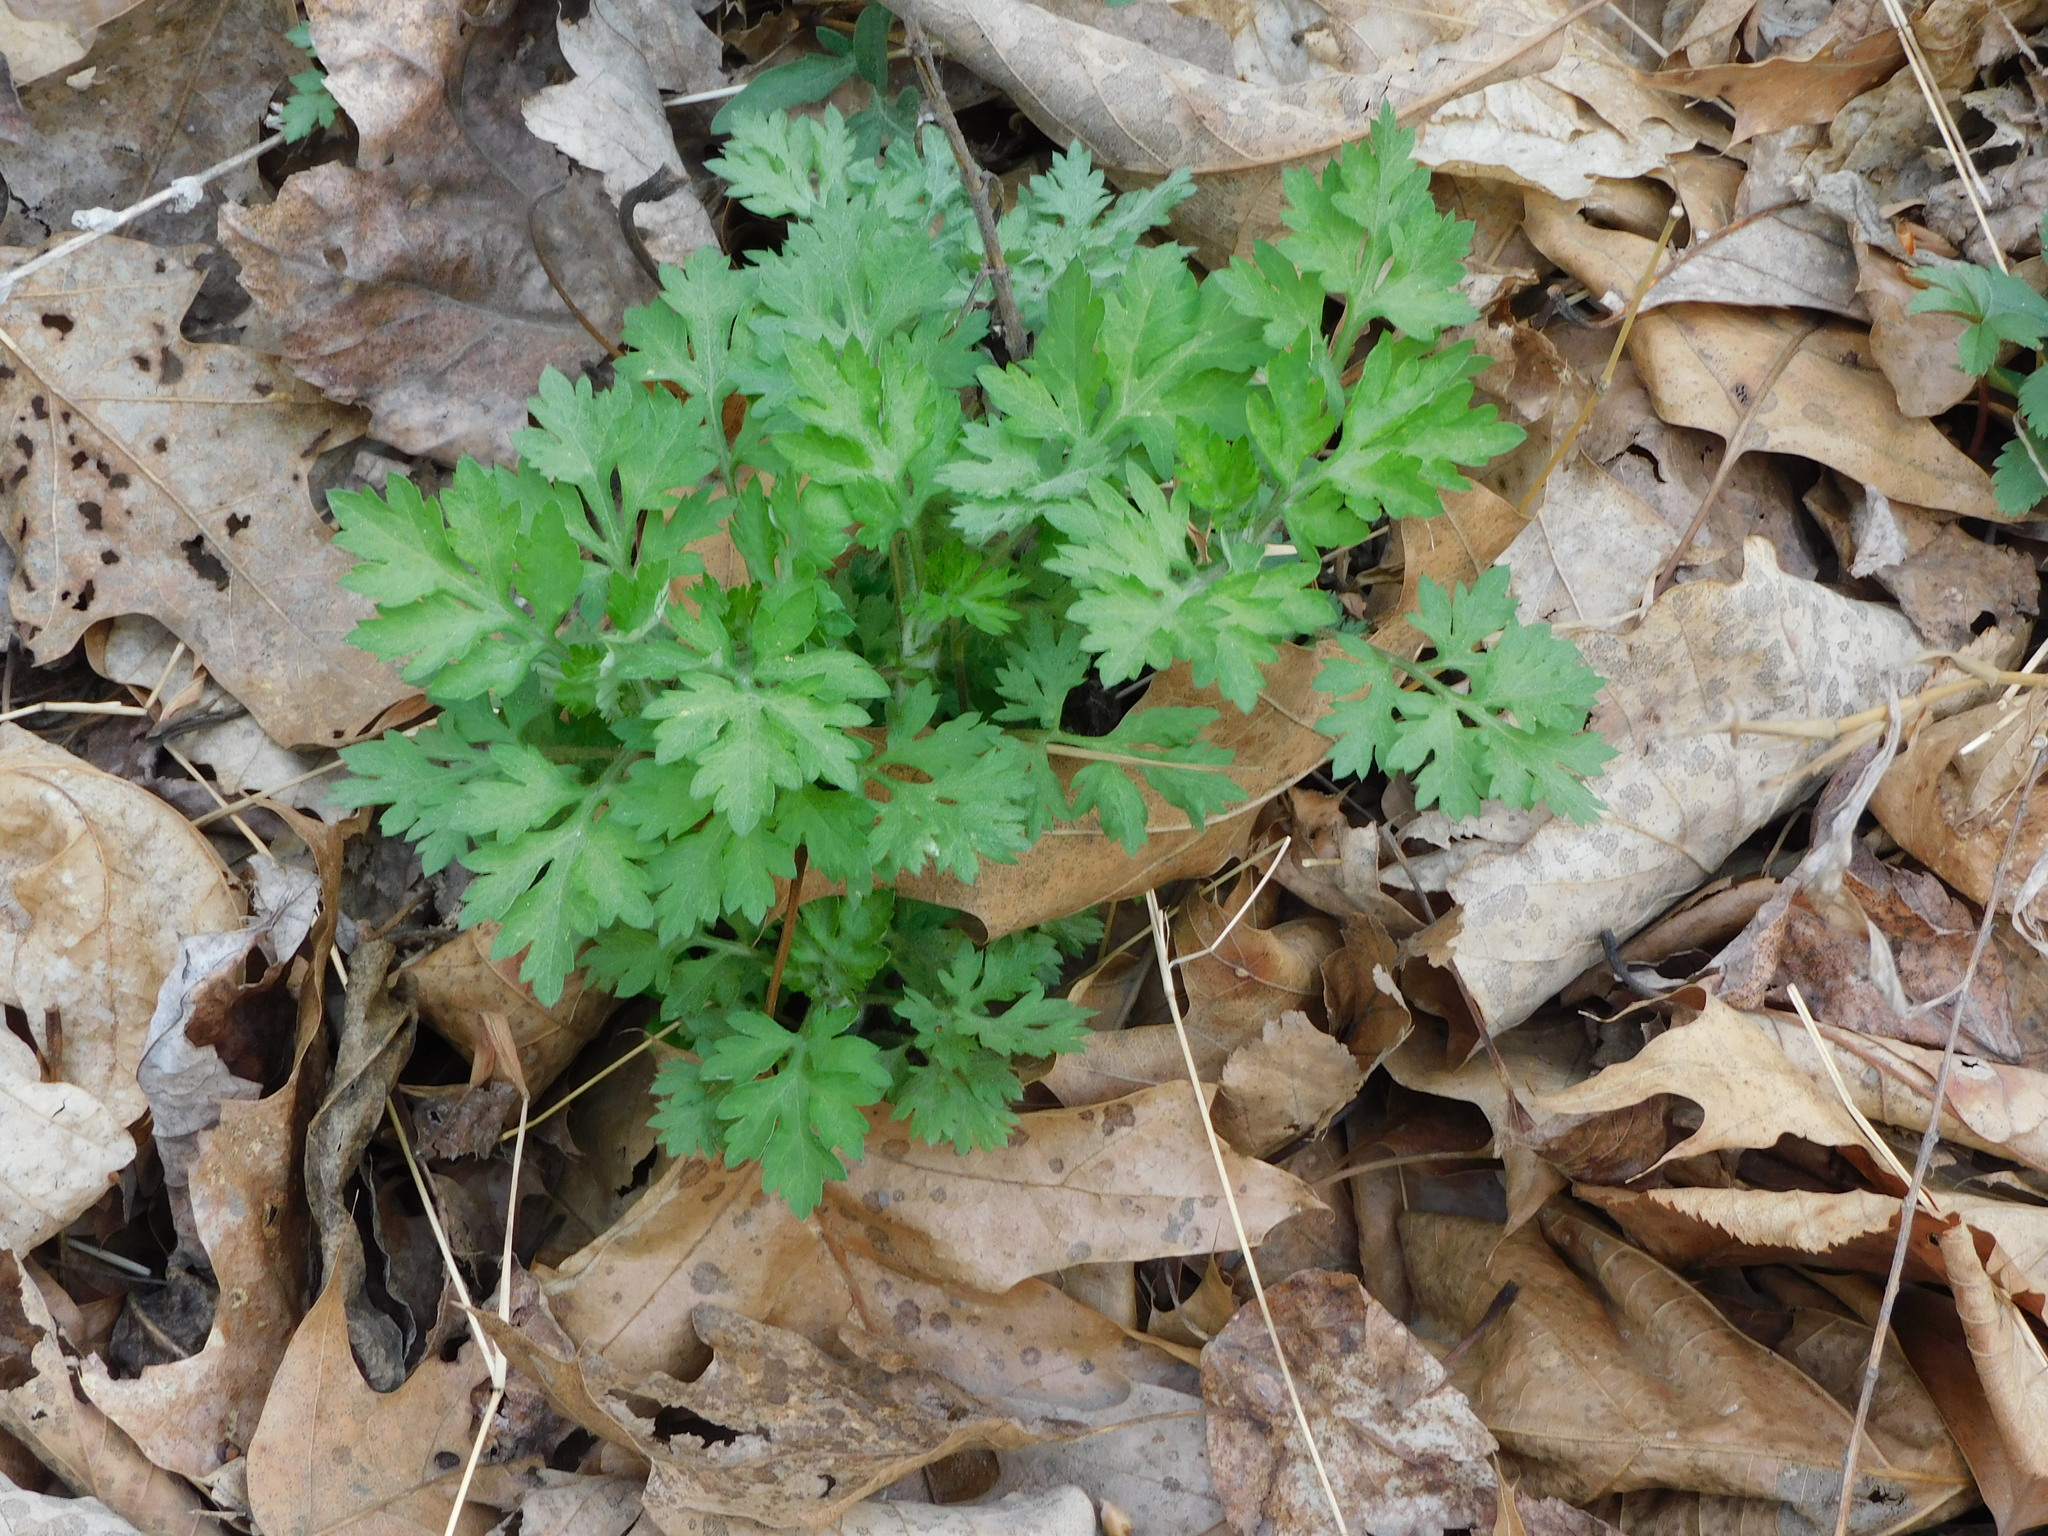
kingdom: Plantae
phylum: Tracheophyta
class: Magnoliopsida
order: Asterales
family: Asteraceae
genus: Artemisia
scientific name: Artemisia vulgaris
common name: Mugwort
